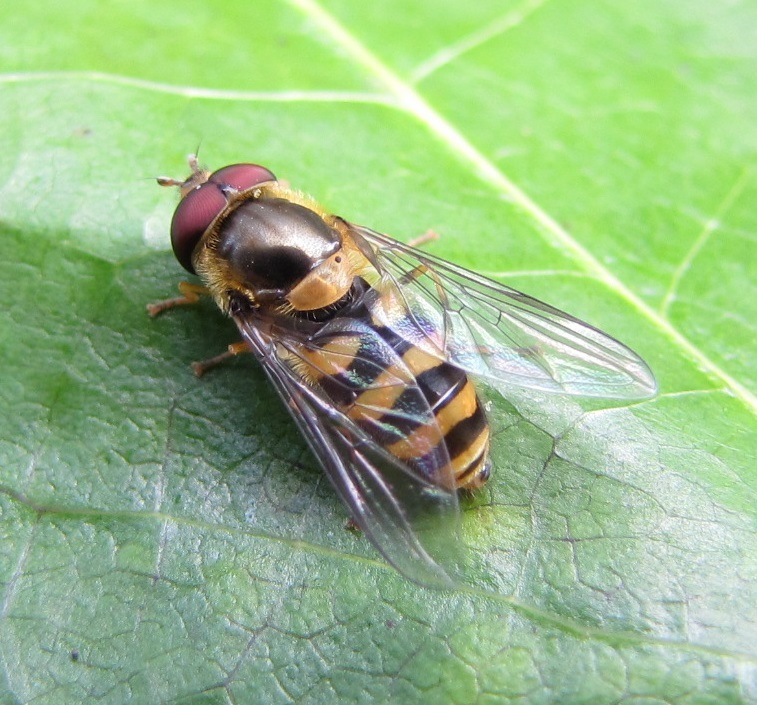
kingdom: Animalia
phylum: Arthropoda
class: Insecta
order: Diptera
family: Syrphidae
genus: Syrphus
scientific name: Syrphus
